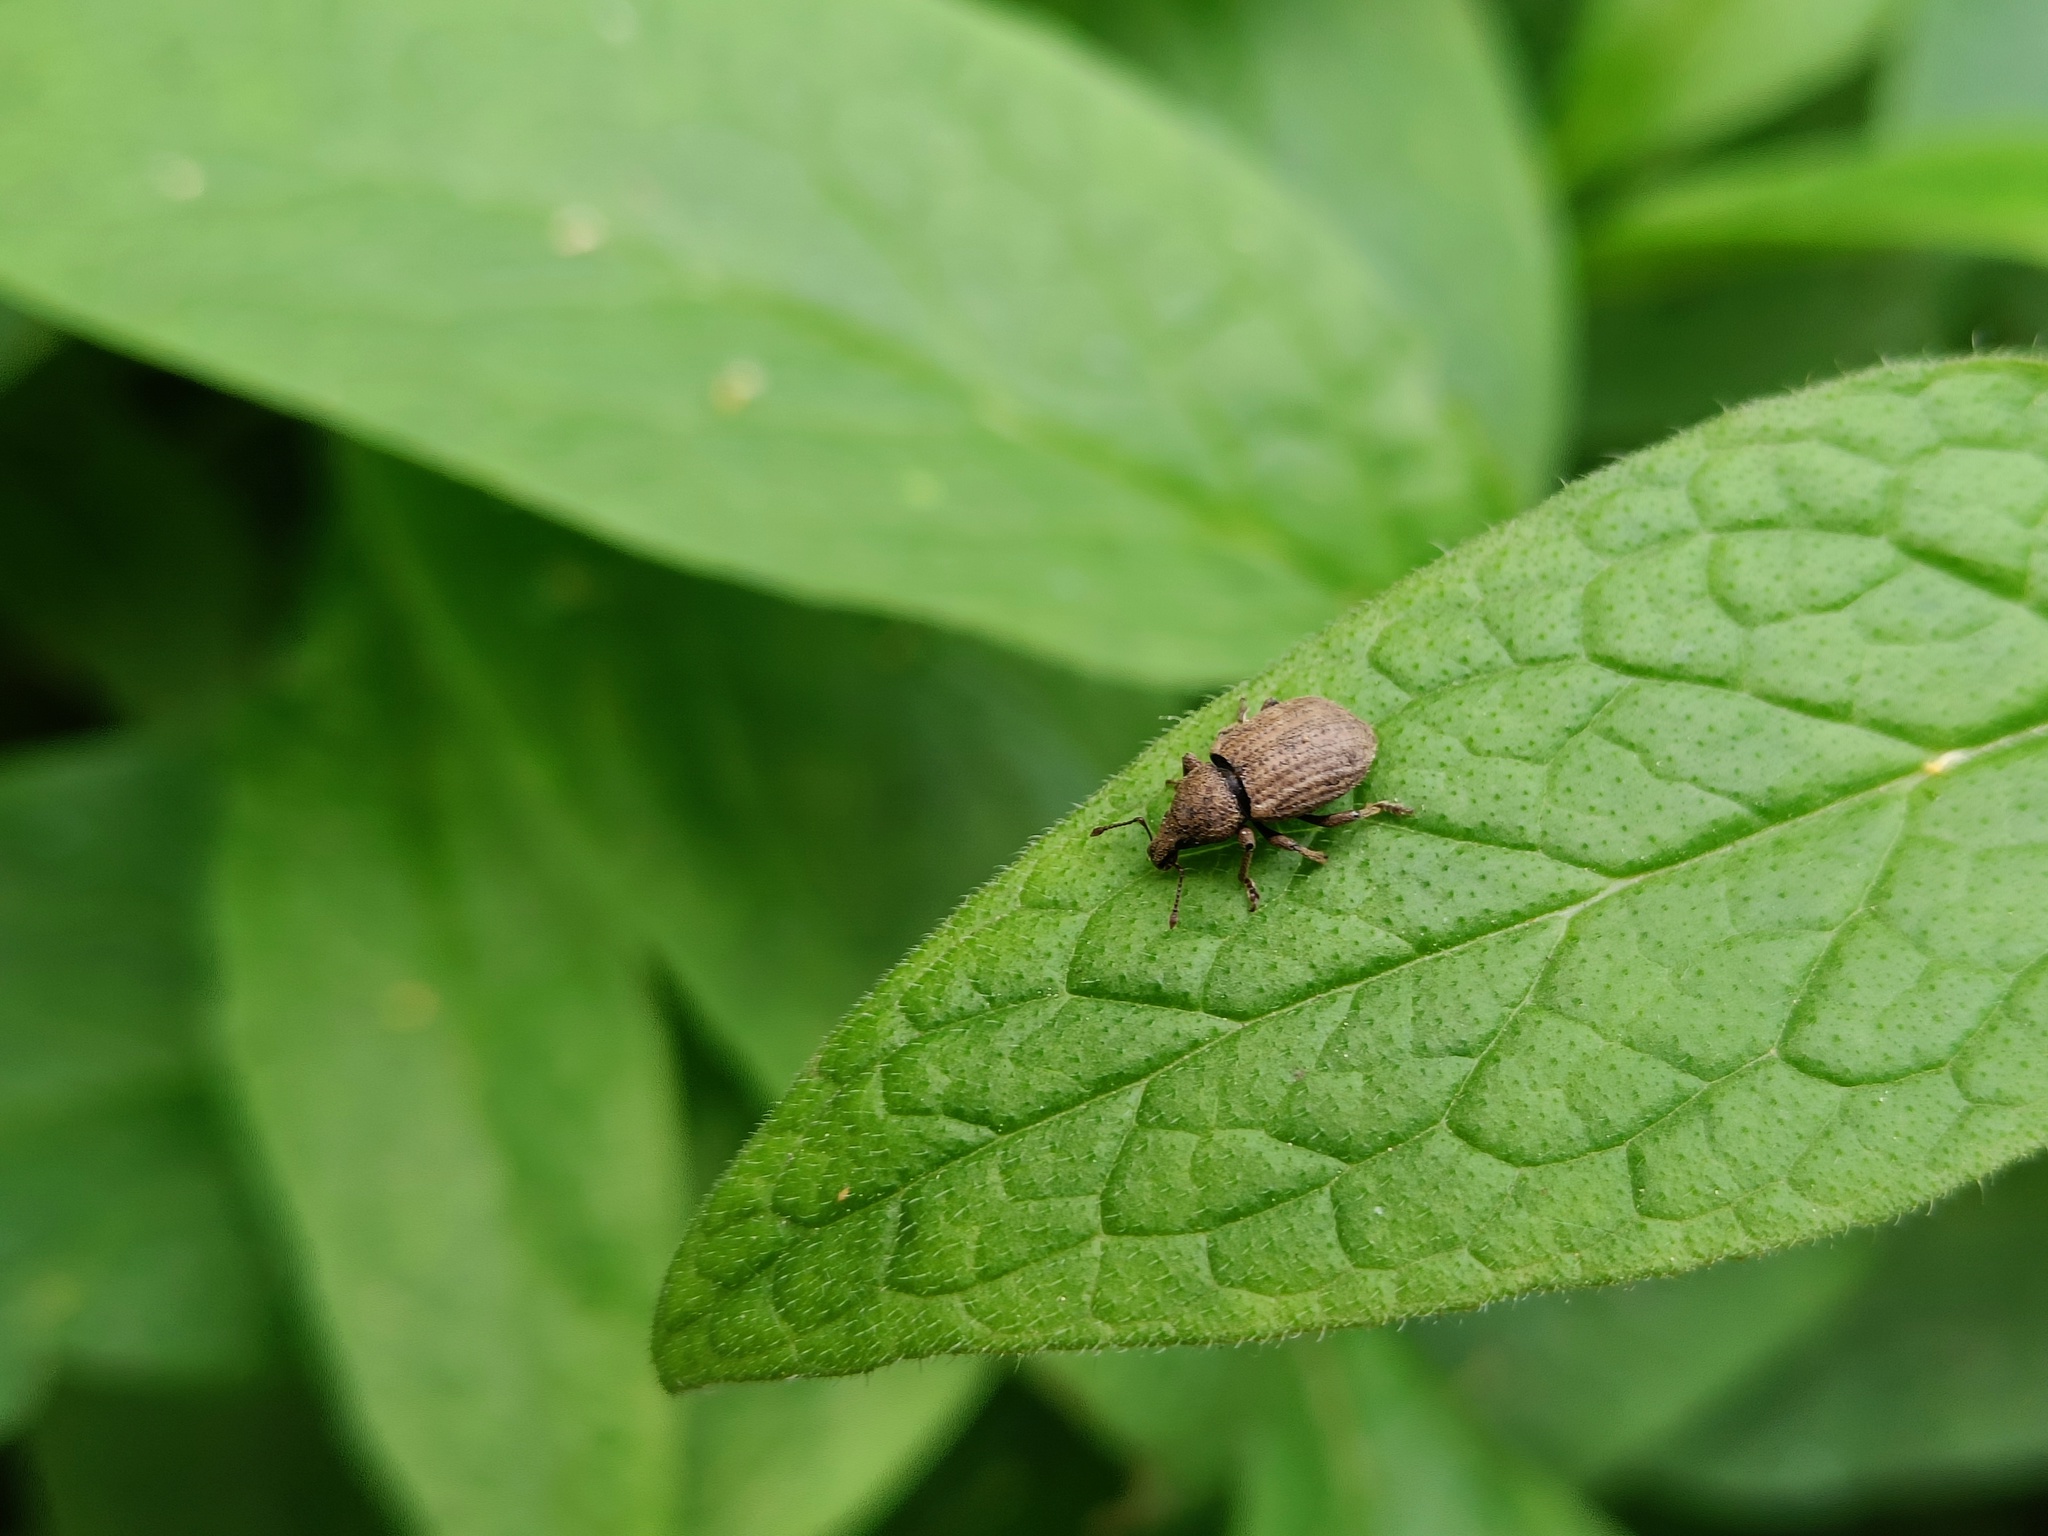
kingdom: Animalia
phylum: Arthropoda
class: Insecta
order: Coleoptera
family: Curculionidae
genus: Barynotus
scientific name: Barynotus moerens
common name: Weevil
